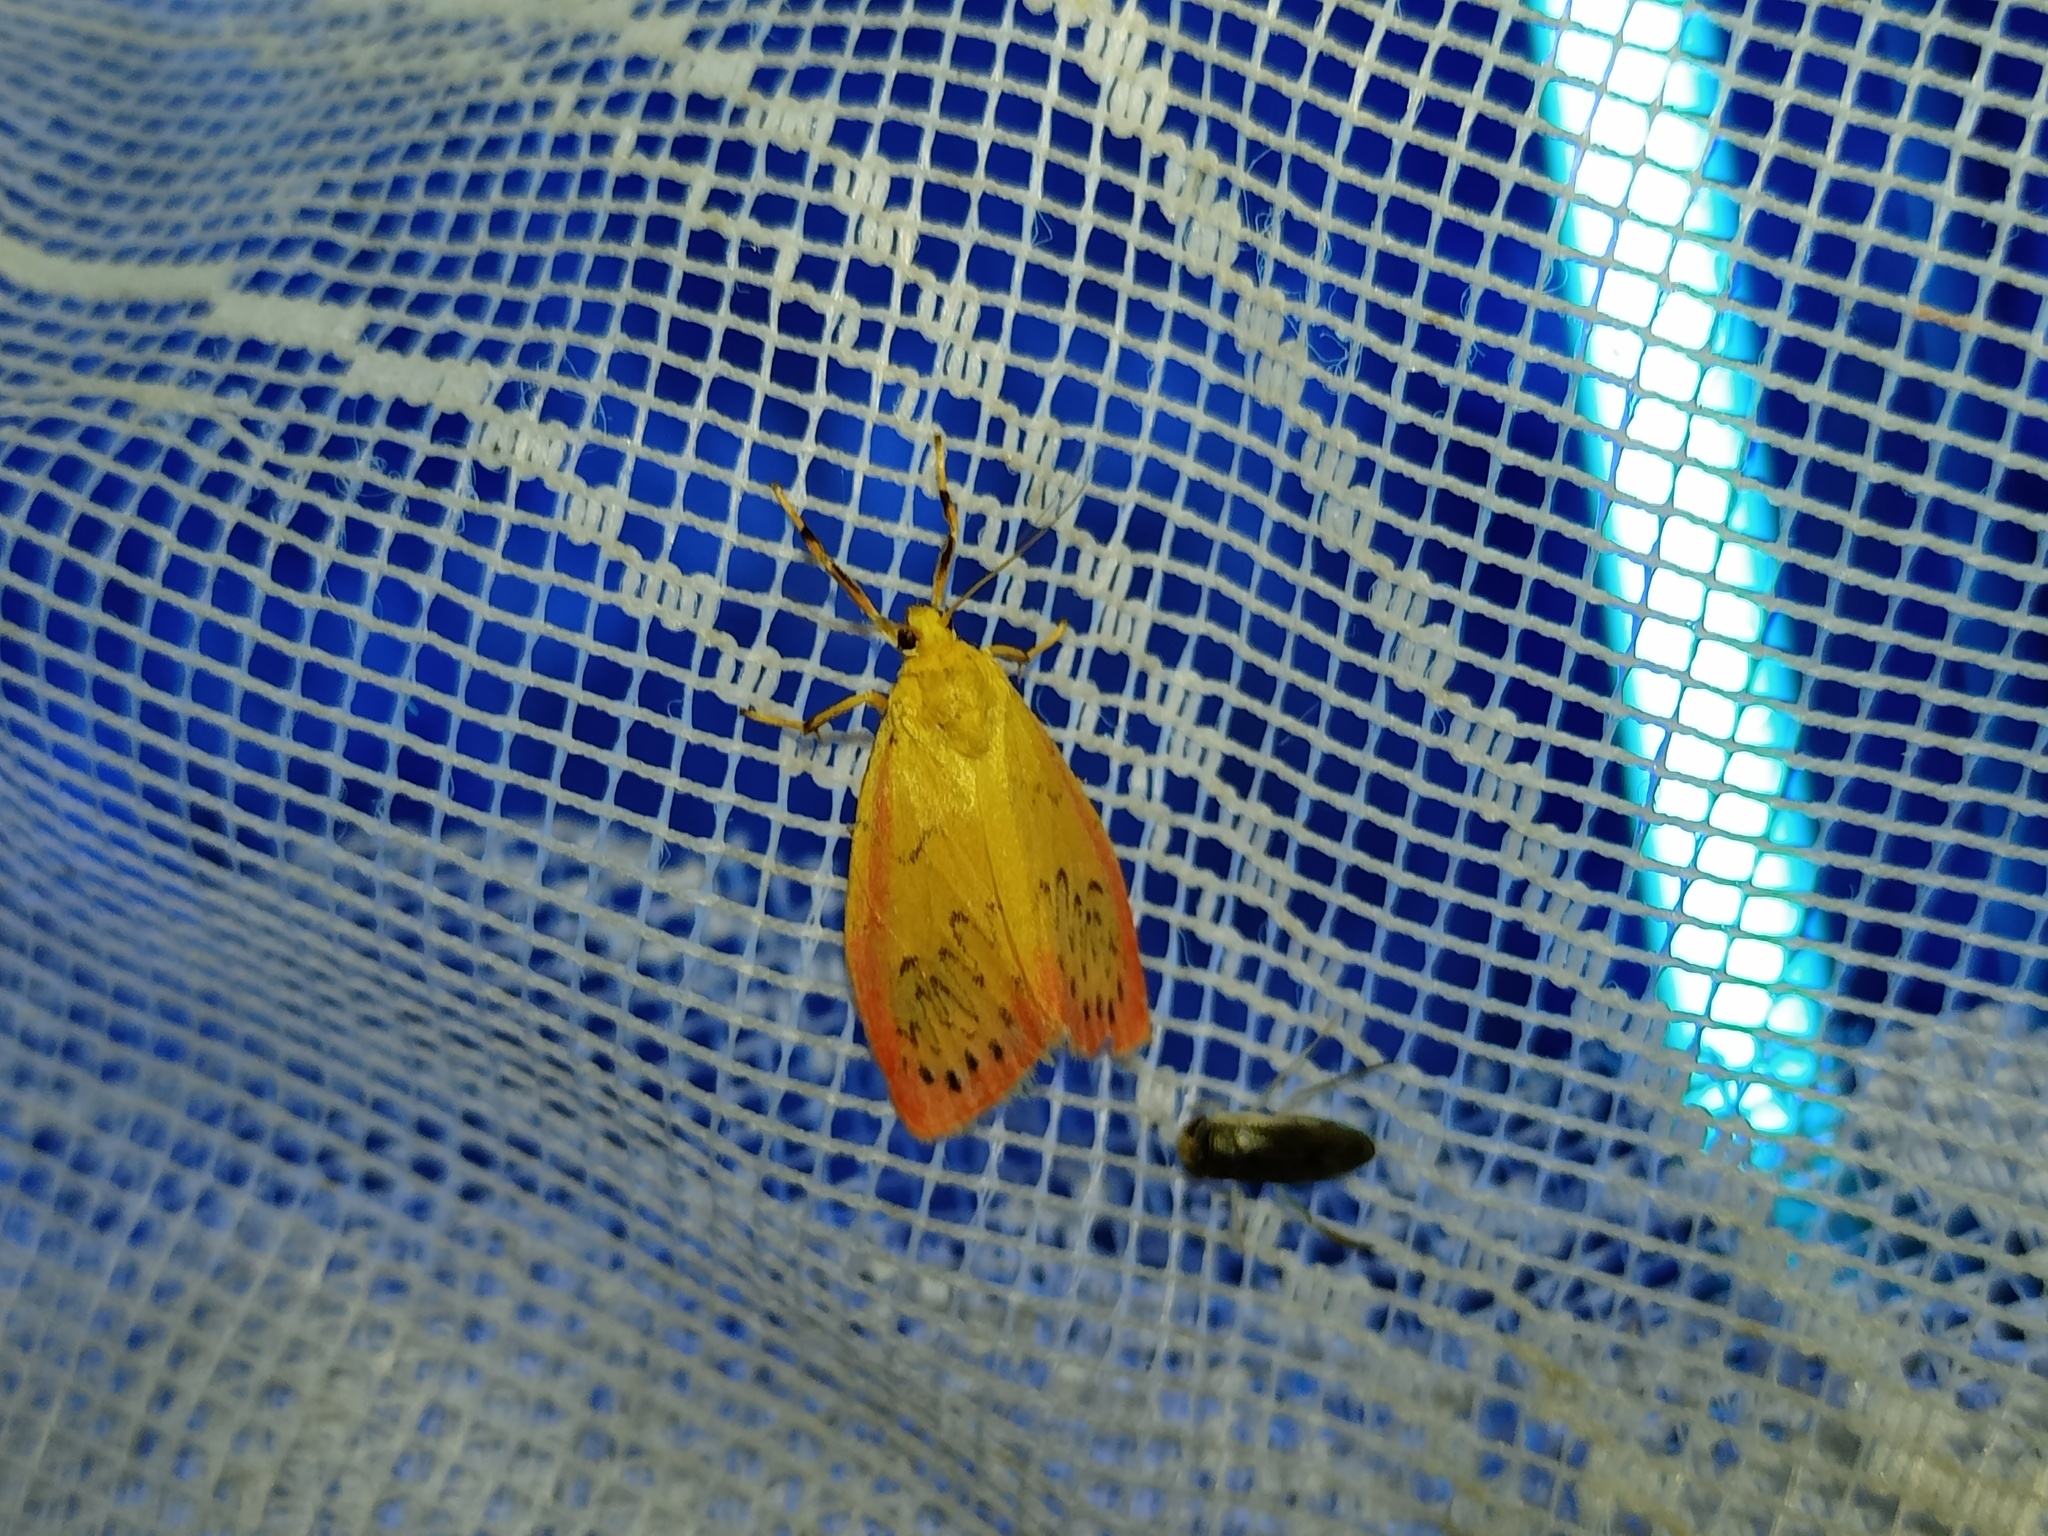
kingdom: Animalia
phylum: Arthropoda
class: Insecta
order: Lepidoptera
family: Erebidae
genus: Miltochrista
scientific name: Miltochrista miniata
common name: Rosy footman
